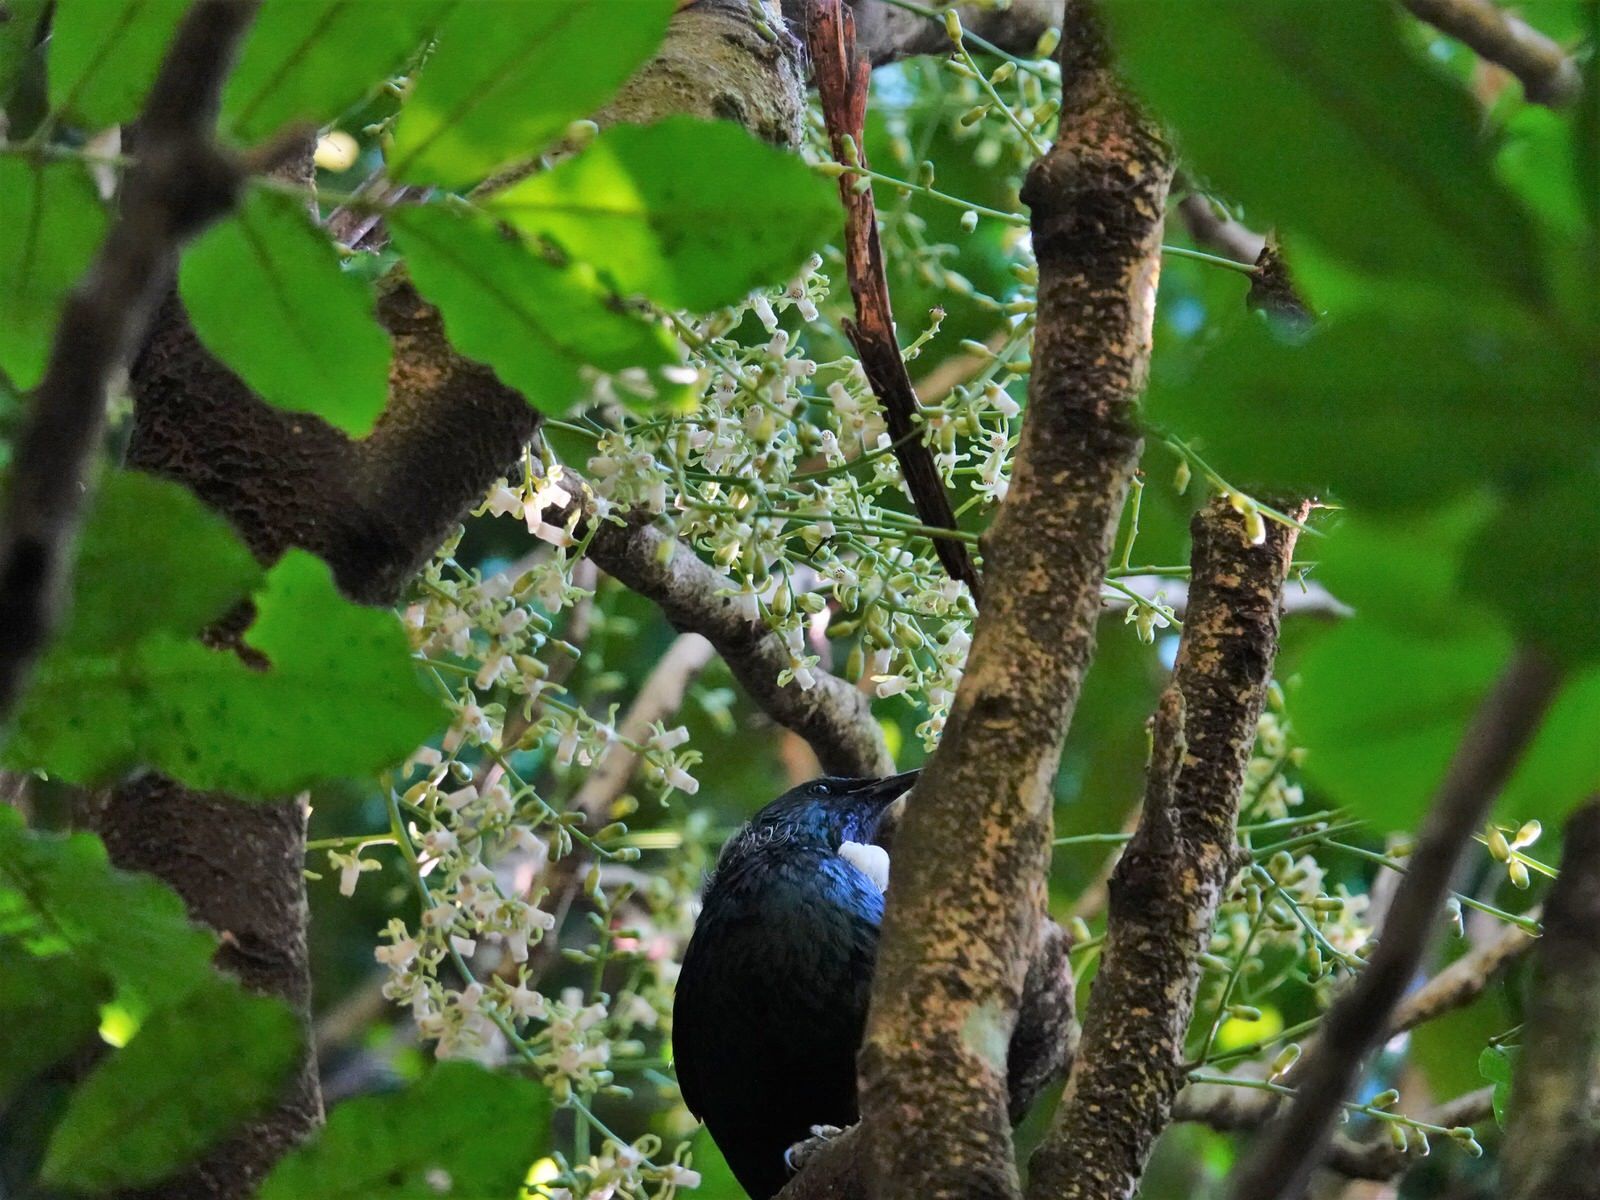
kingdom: Animalia
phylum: Chordata
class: Aves
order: Passeriformes
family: Meliphagidae
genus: Prosthemadera
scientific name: Prosthemadera novaeseelandiae
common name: Tui
